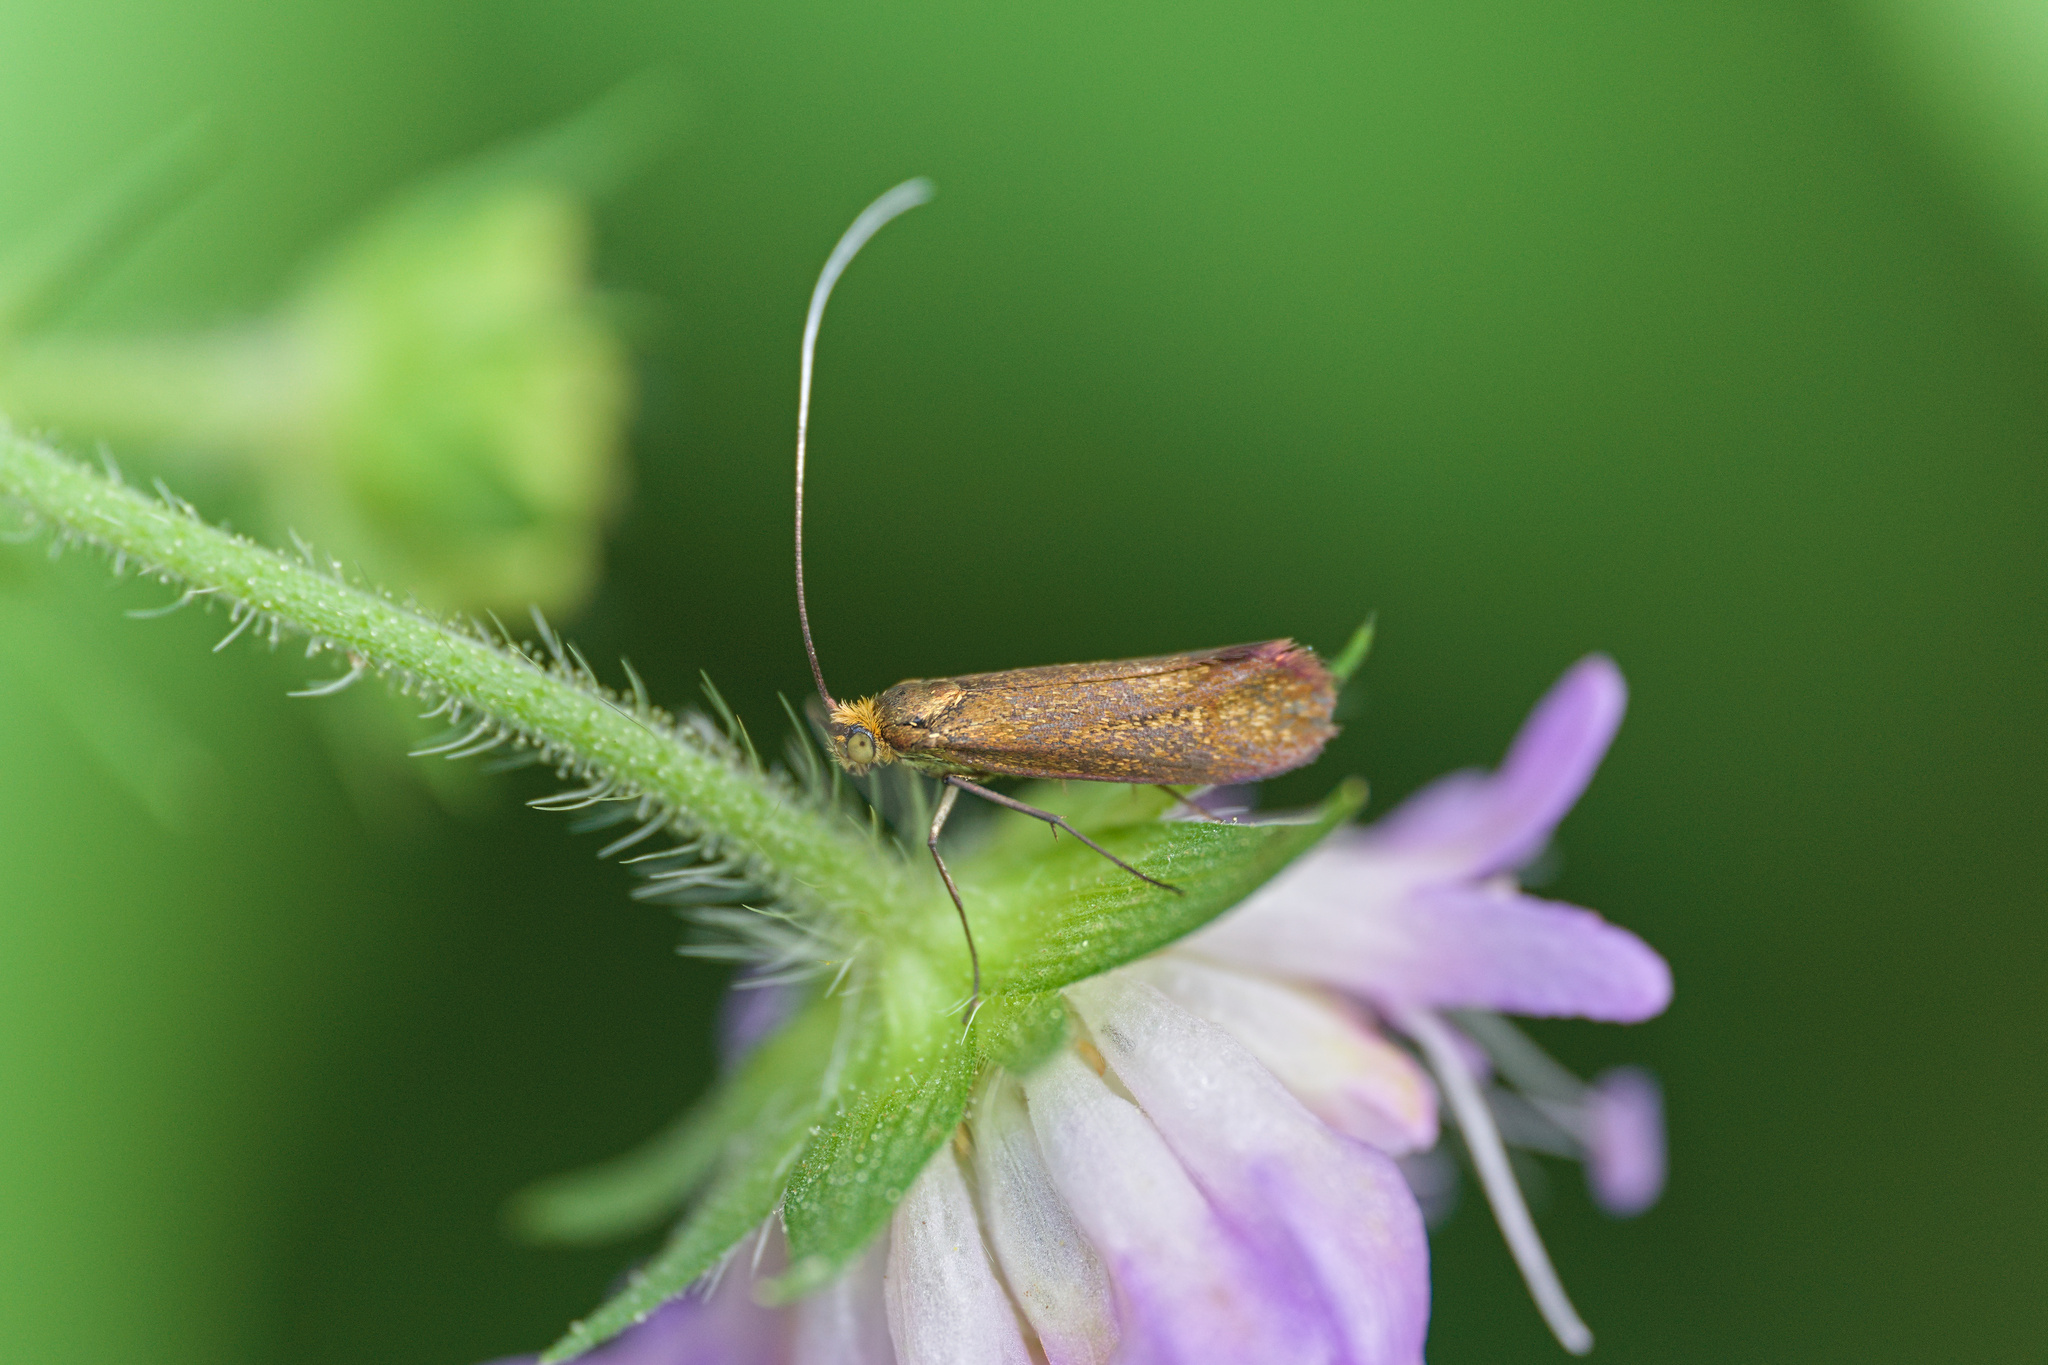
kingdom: Animalia
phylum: Arthropoda
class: Insecta
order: Lepidoptera
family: Adelidae
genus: Nemophora
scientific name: Nemophora metallica
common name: Brassy long-horn
